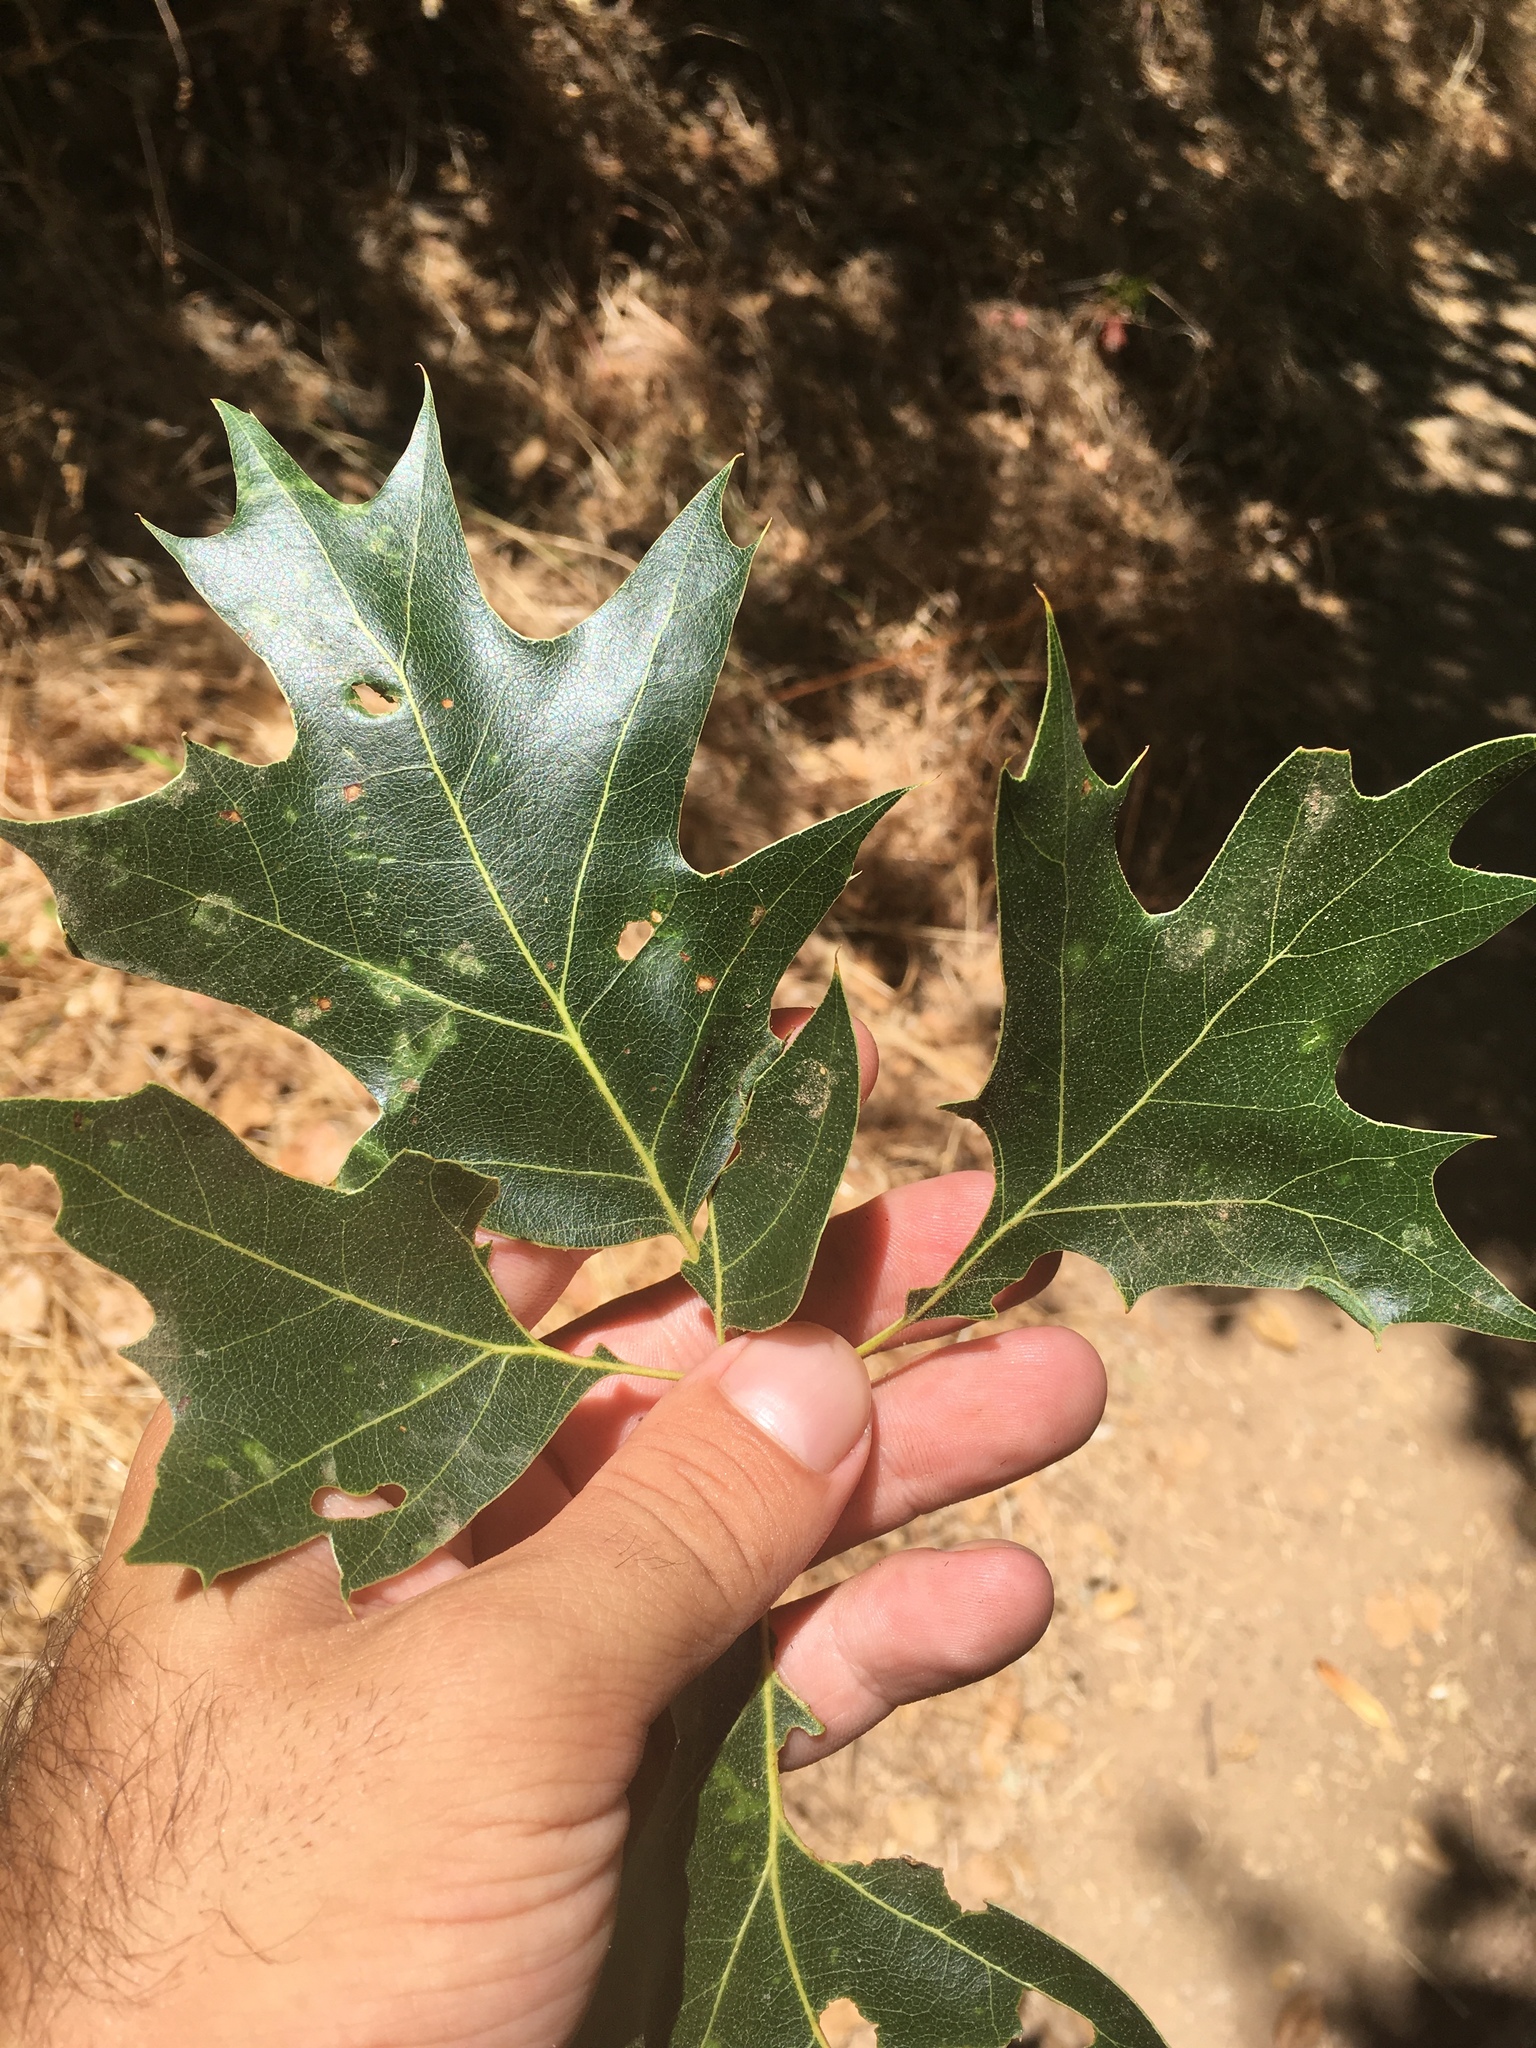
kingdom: Plantae
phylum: Tracheophyta
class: Magnoliopsida
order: Fagales
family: Fagaceae
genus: Quercus
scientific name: Quercus kelloggii
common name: California black oak
